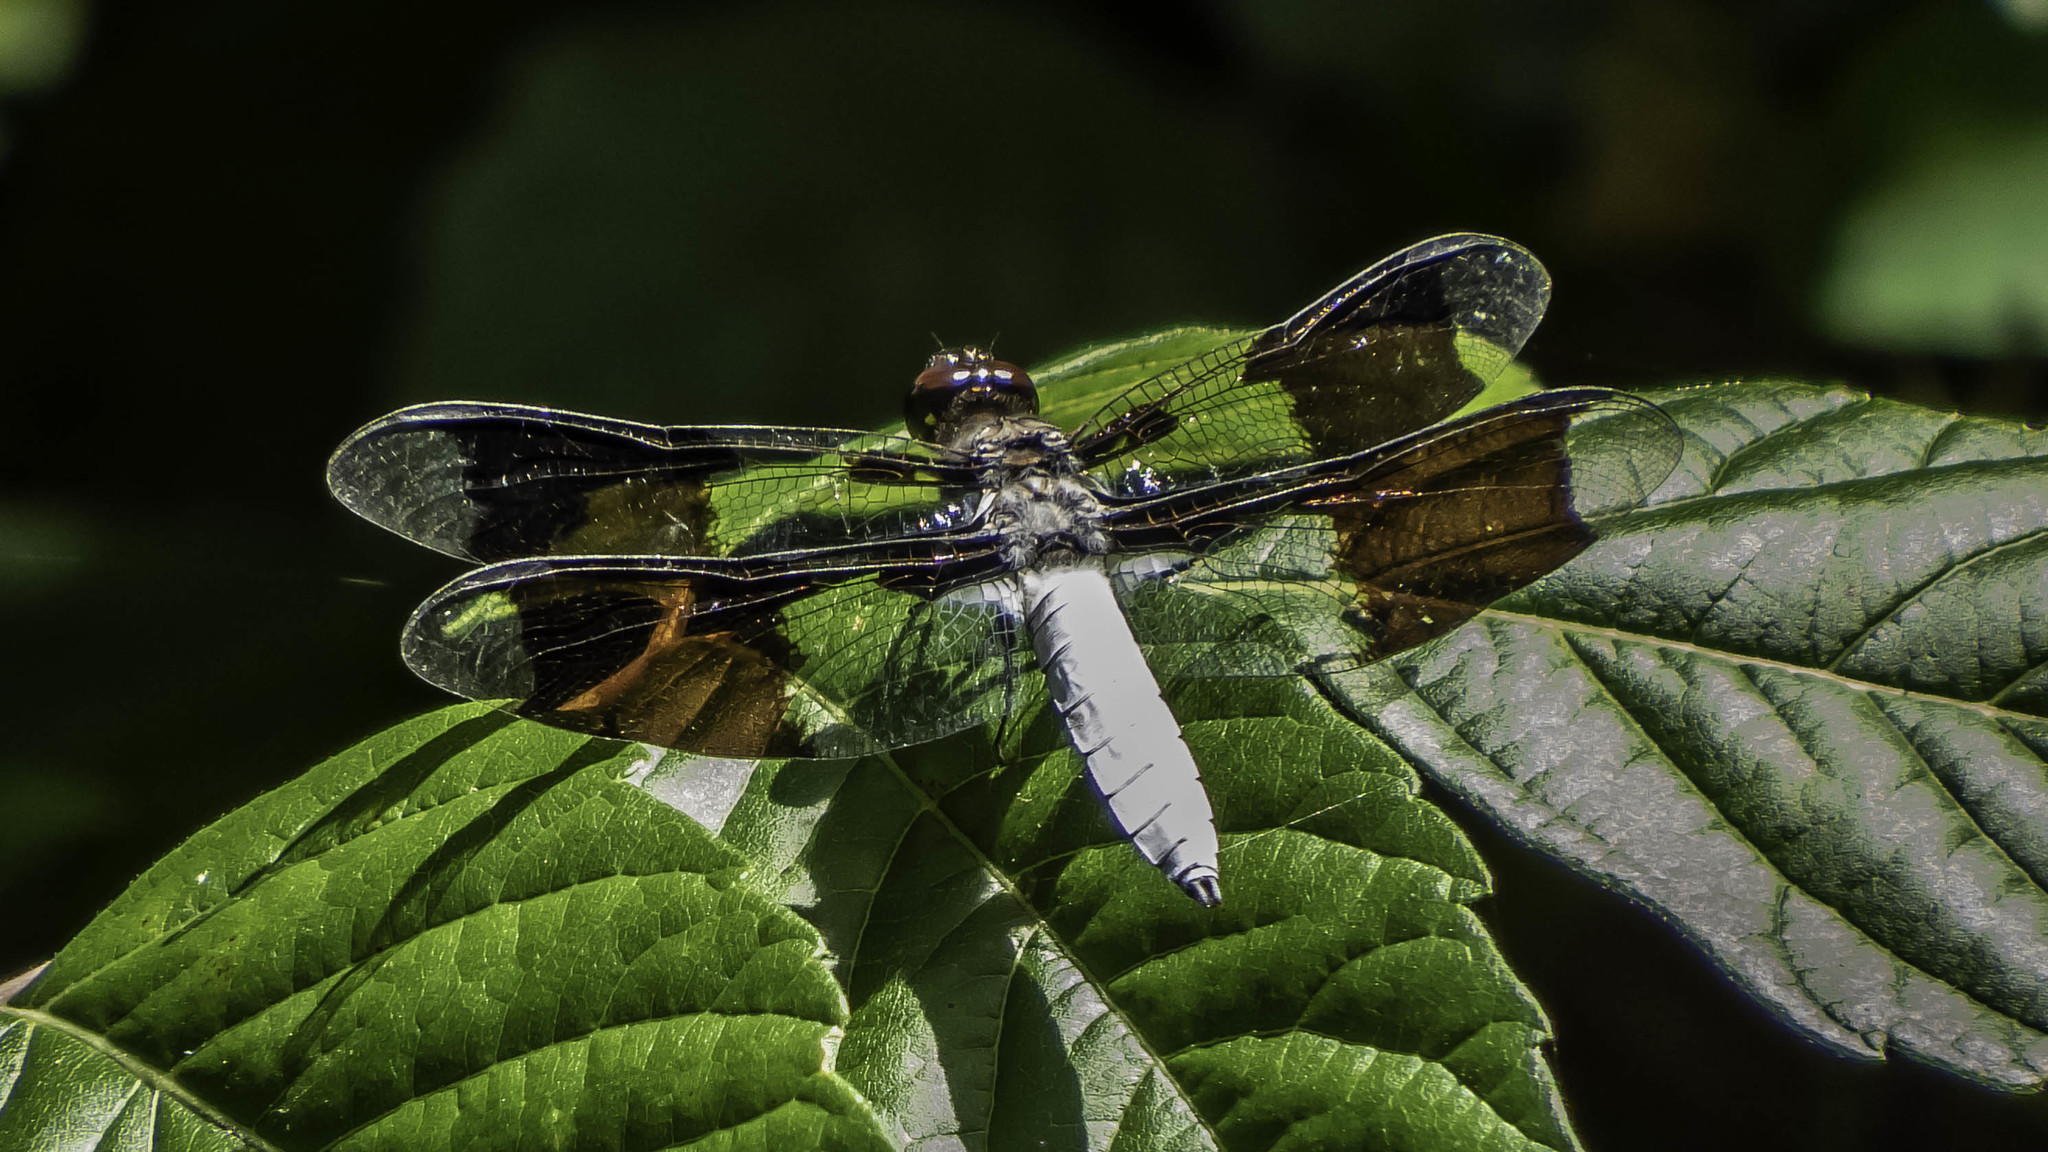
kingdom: Animalia
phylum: Arthropoda
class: Insecta
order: Odonata
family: Libellulidae
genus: Plathemis
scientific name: Plathemis lydia
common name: Common whitetail
